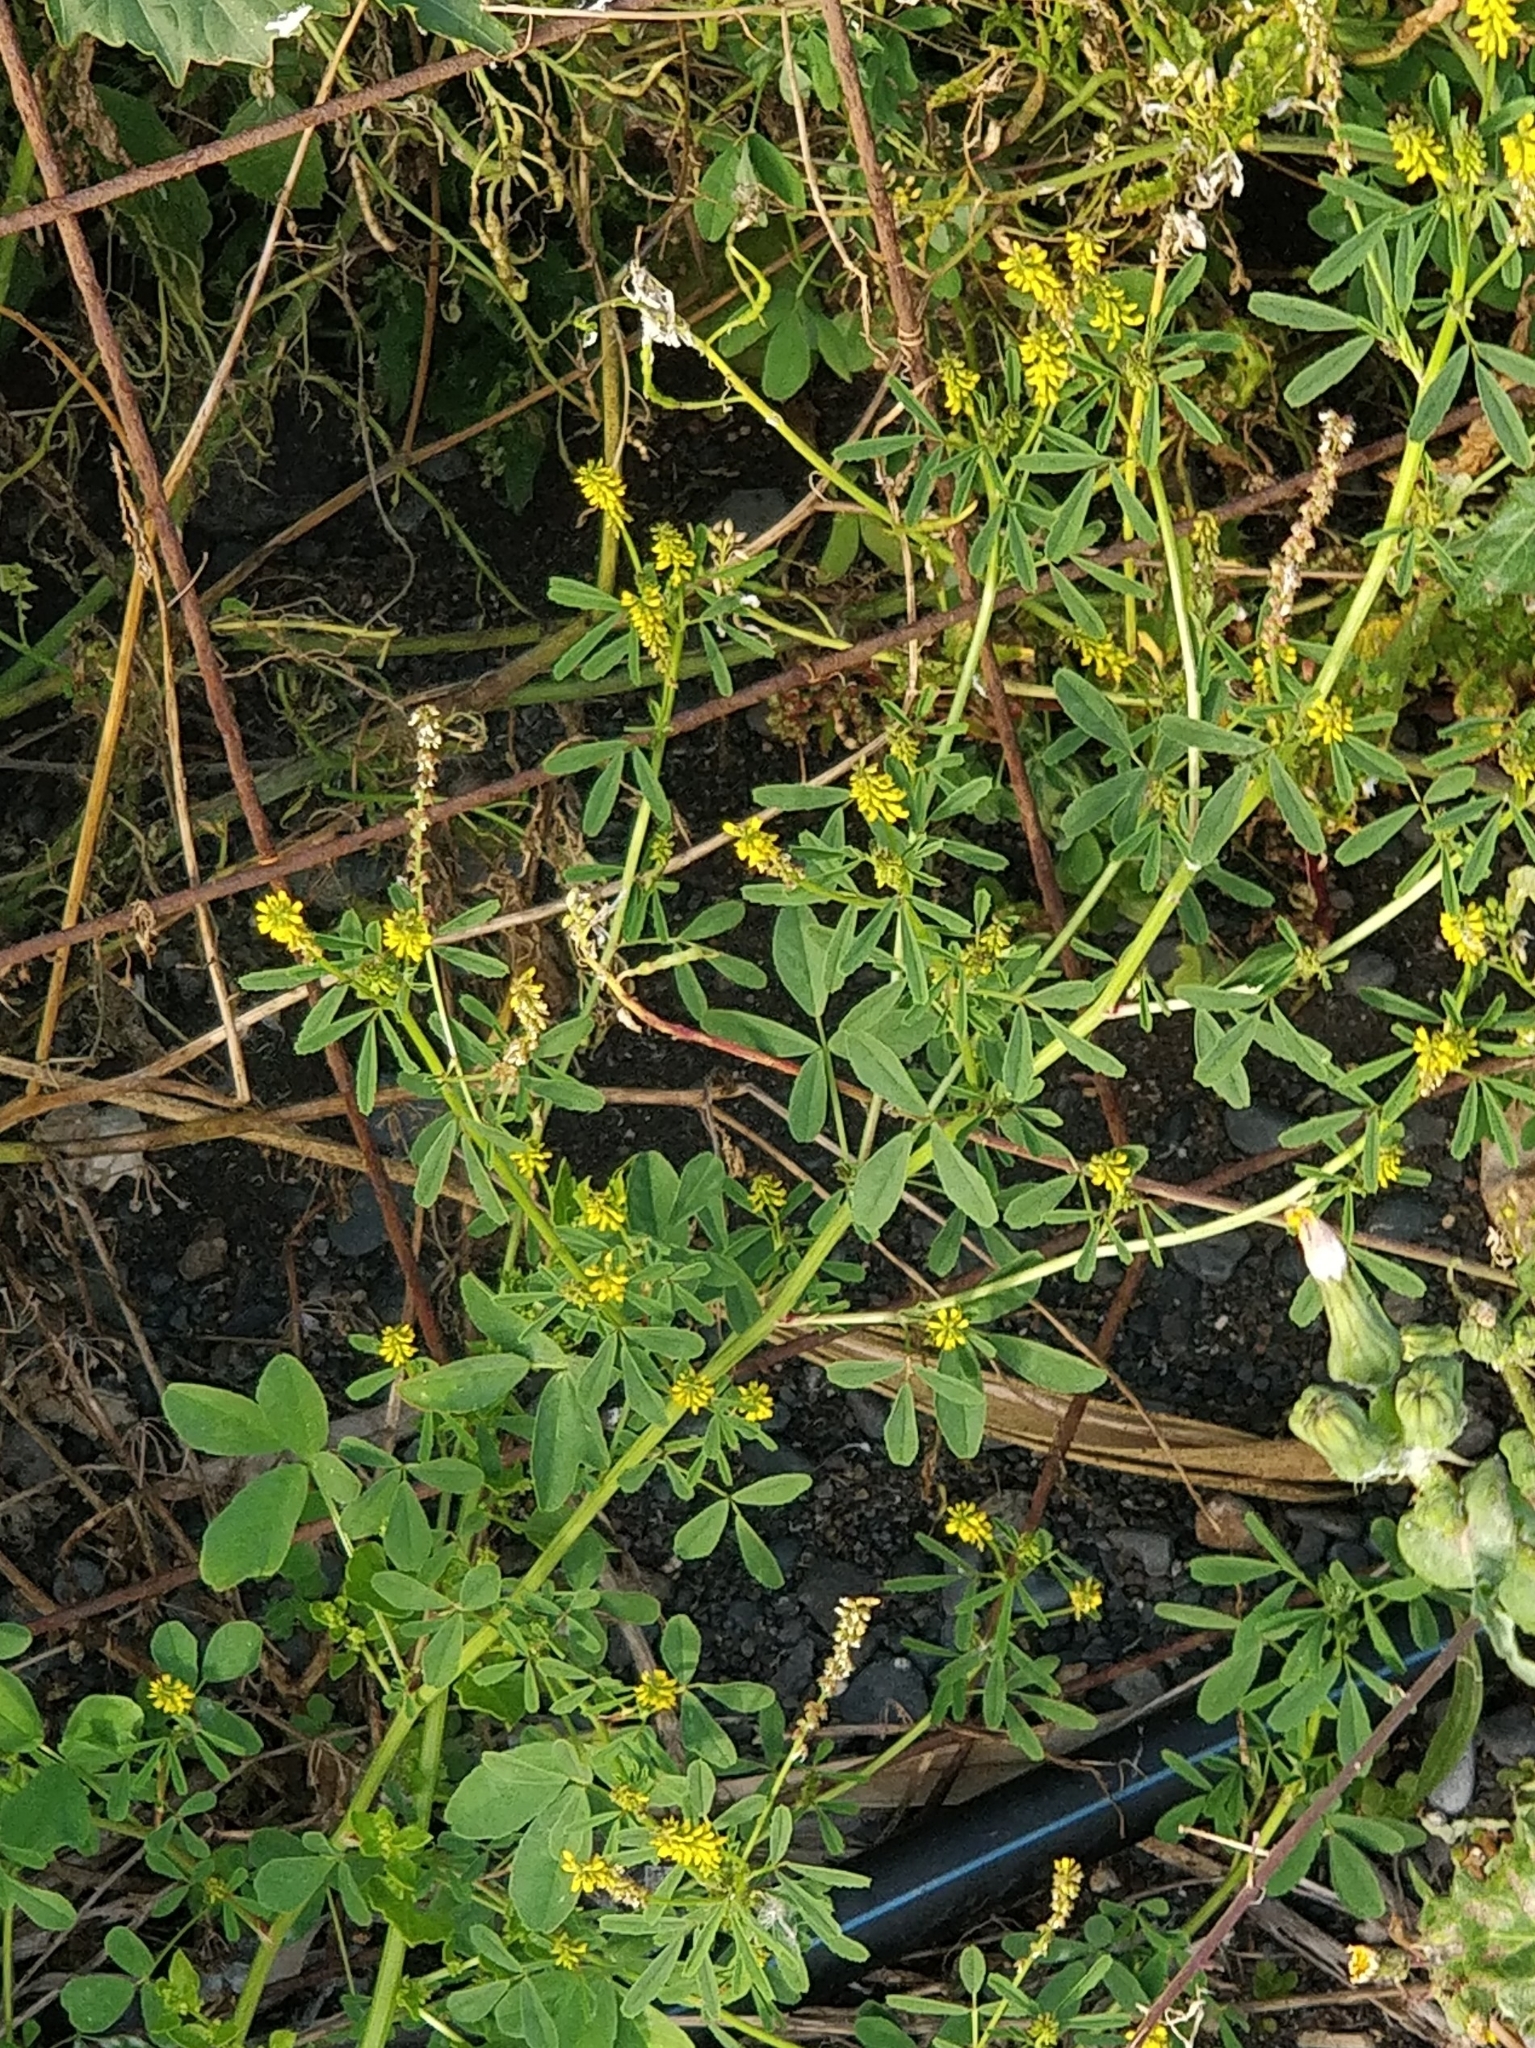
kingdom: Plantae
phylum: Tracheophyta
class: Magnoliopsida
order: Fabales
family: Fabaceae
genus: Melilotus
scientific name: Melilotus indicus
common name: Small melilot
